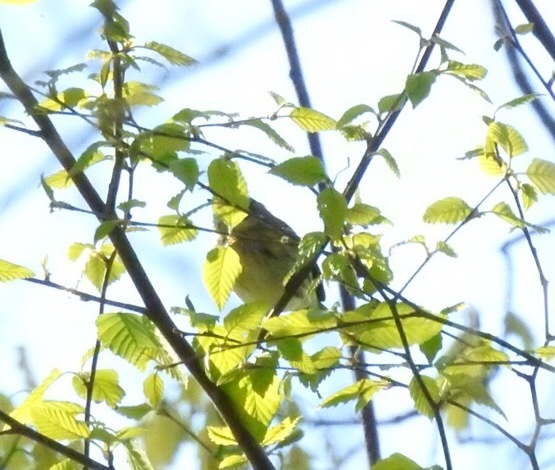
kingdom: Animalia
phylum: Chordata
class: Aves
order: Passeriformes
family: Parulidae
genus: Setophaga
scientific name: Setophaga coronata
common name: Myrtle warbler
